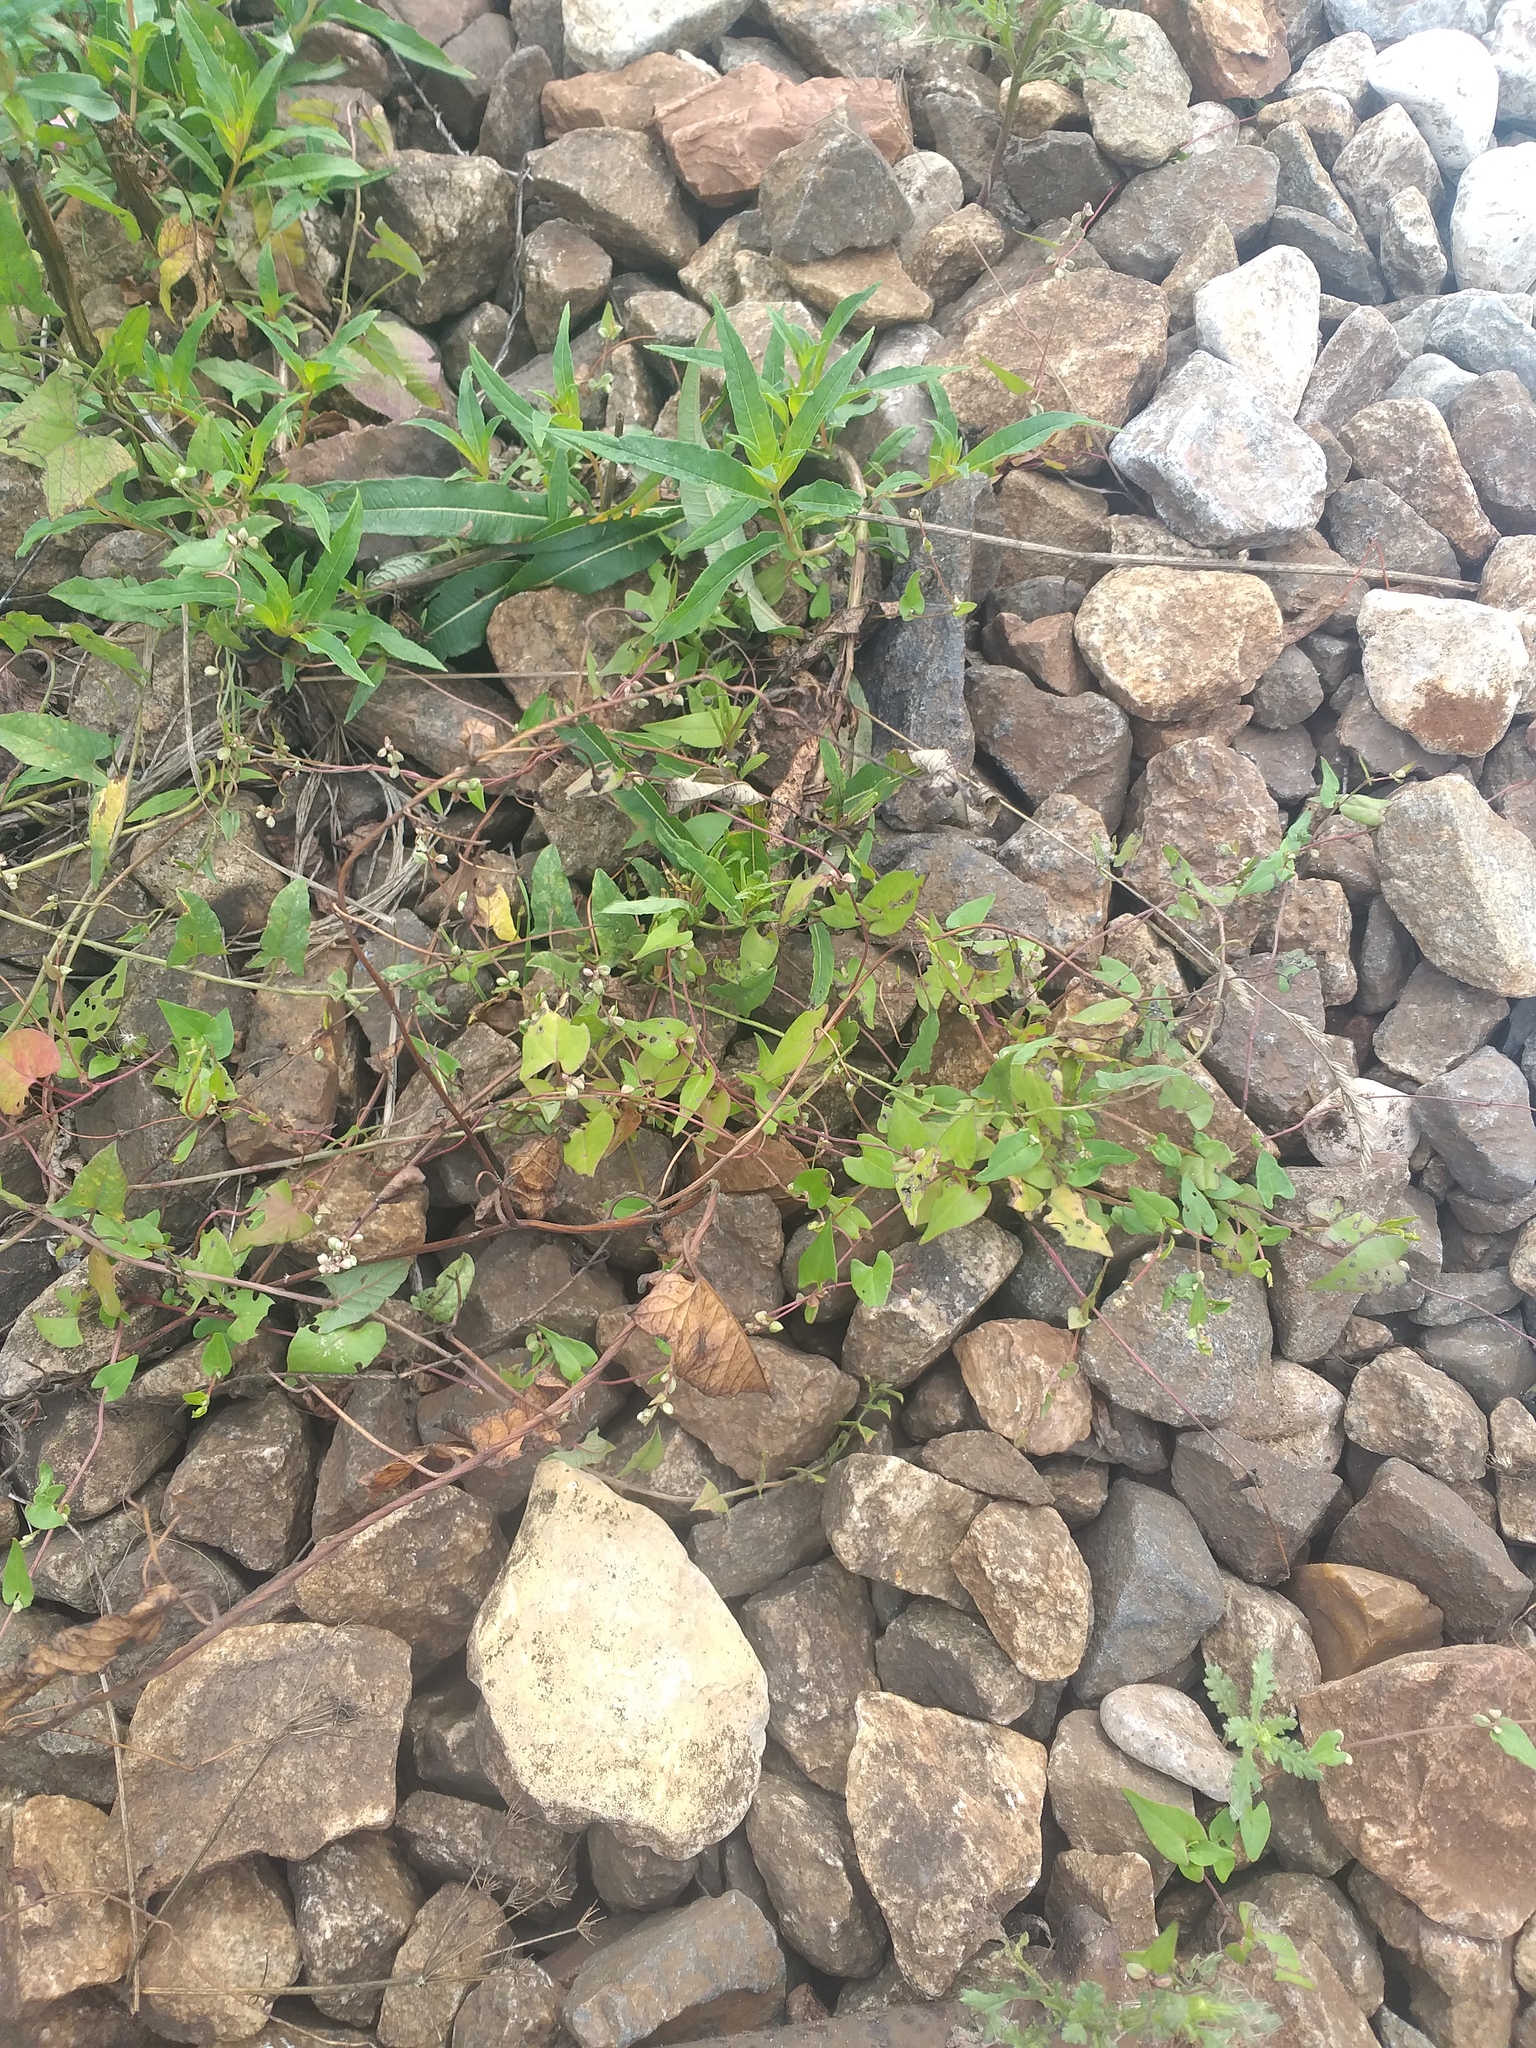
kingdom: Plantae
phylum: Tracheophyta
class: Magnoliopsida
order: Caryophyllales
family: Polygonaceae
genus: Fallopia
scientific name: Fallopia convolvulus
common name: Black bindweed
